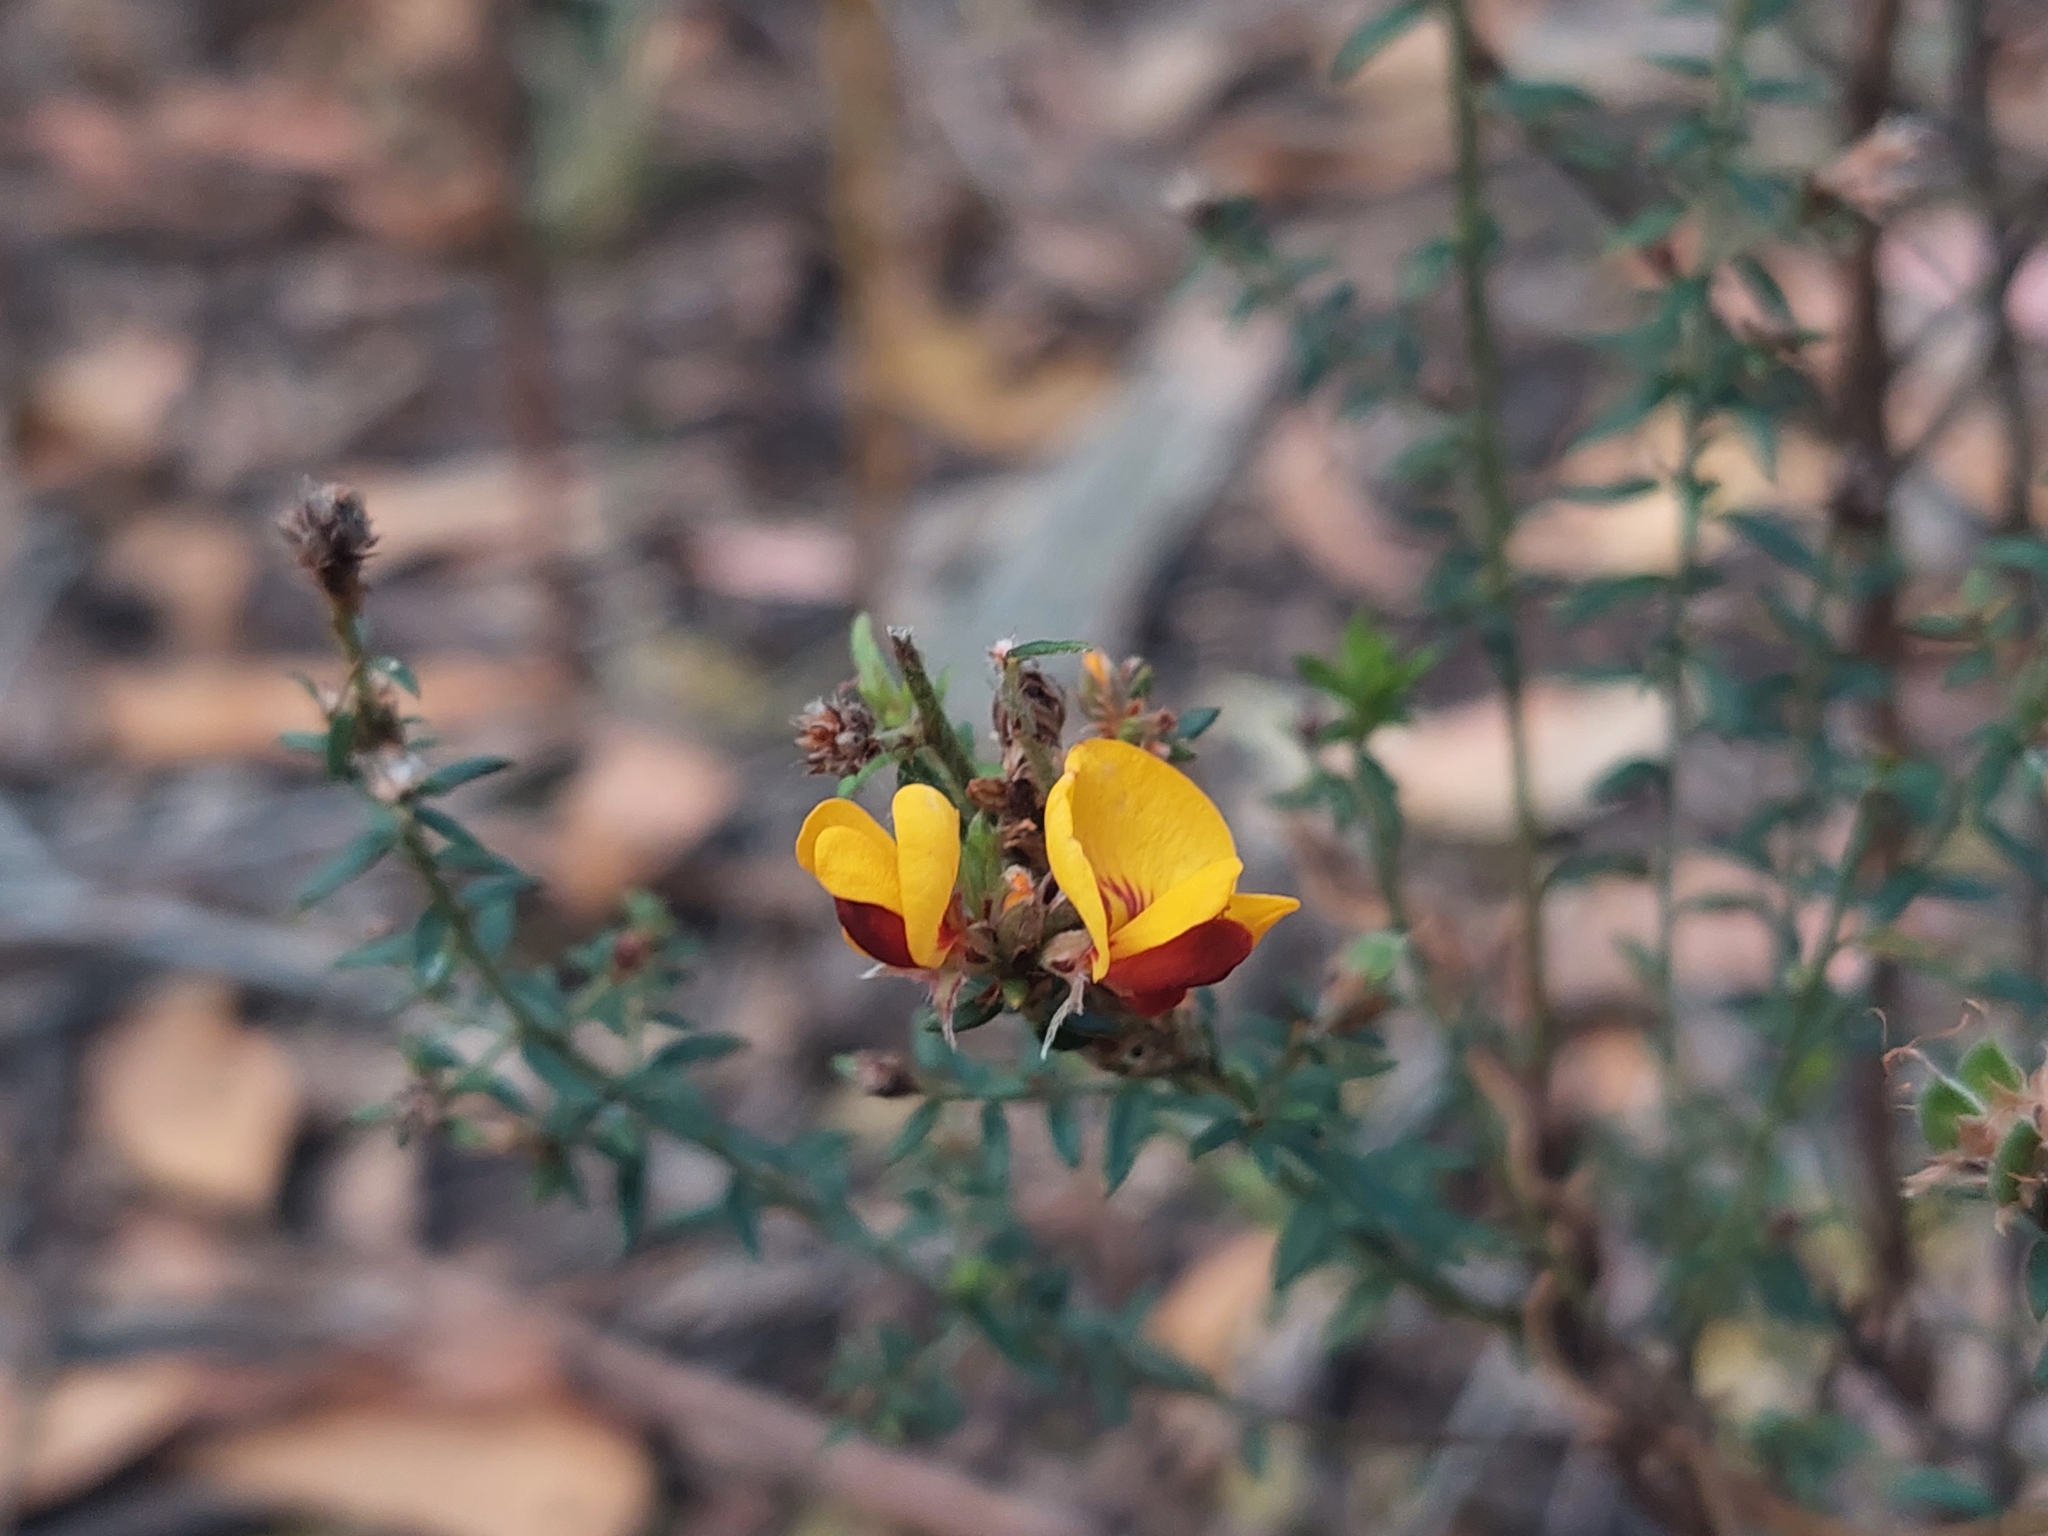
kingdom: Plantae
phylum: Tracheophyta
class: Magnoliopsida
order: Fabales
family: Fabaceae
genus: Pultenaea
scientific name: Pultenaea gunnii
